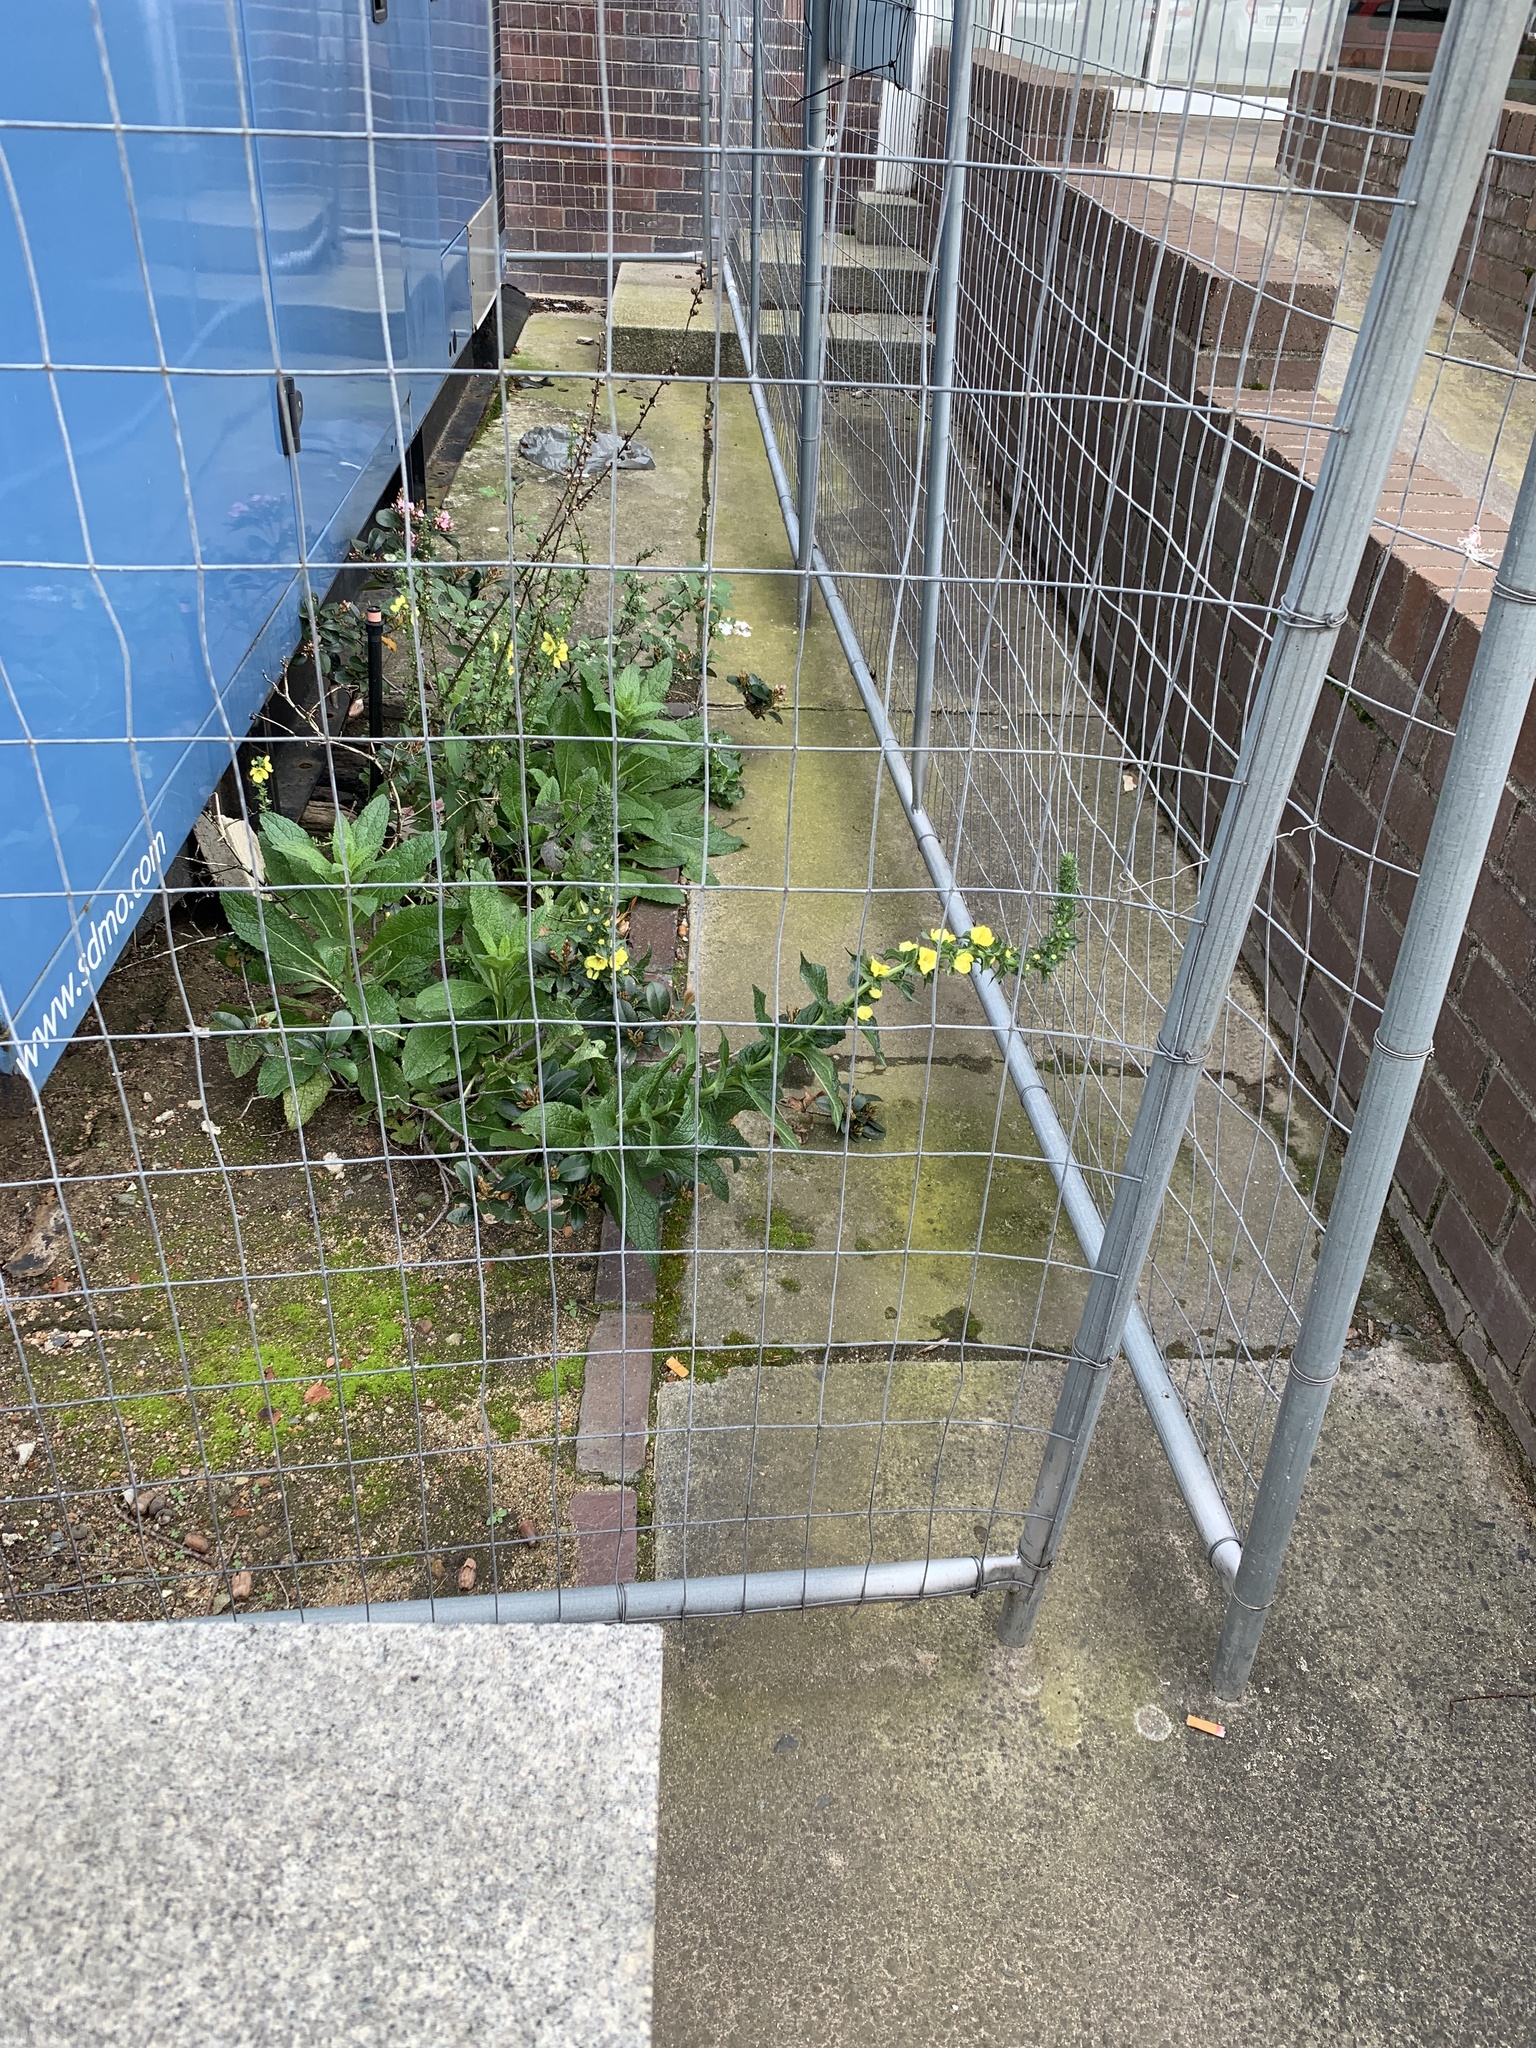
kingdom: Plantae
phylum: Tracheophyta
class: Magnoliopsida
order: Lamiales
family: Scrophulariaceae
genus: Verbascum
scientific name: Verbascum virgatum
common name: Twiggy mullein
